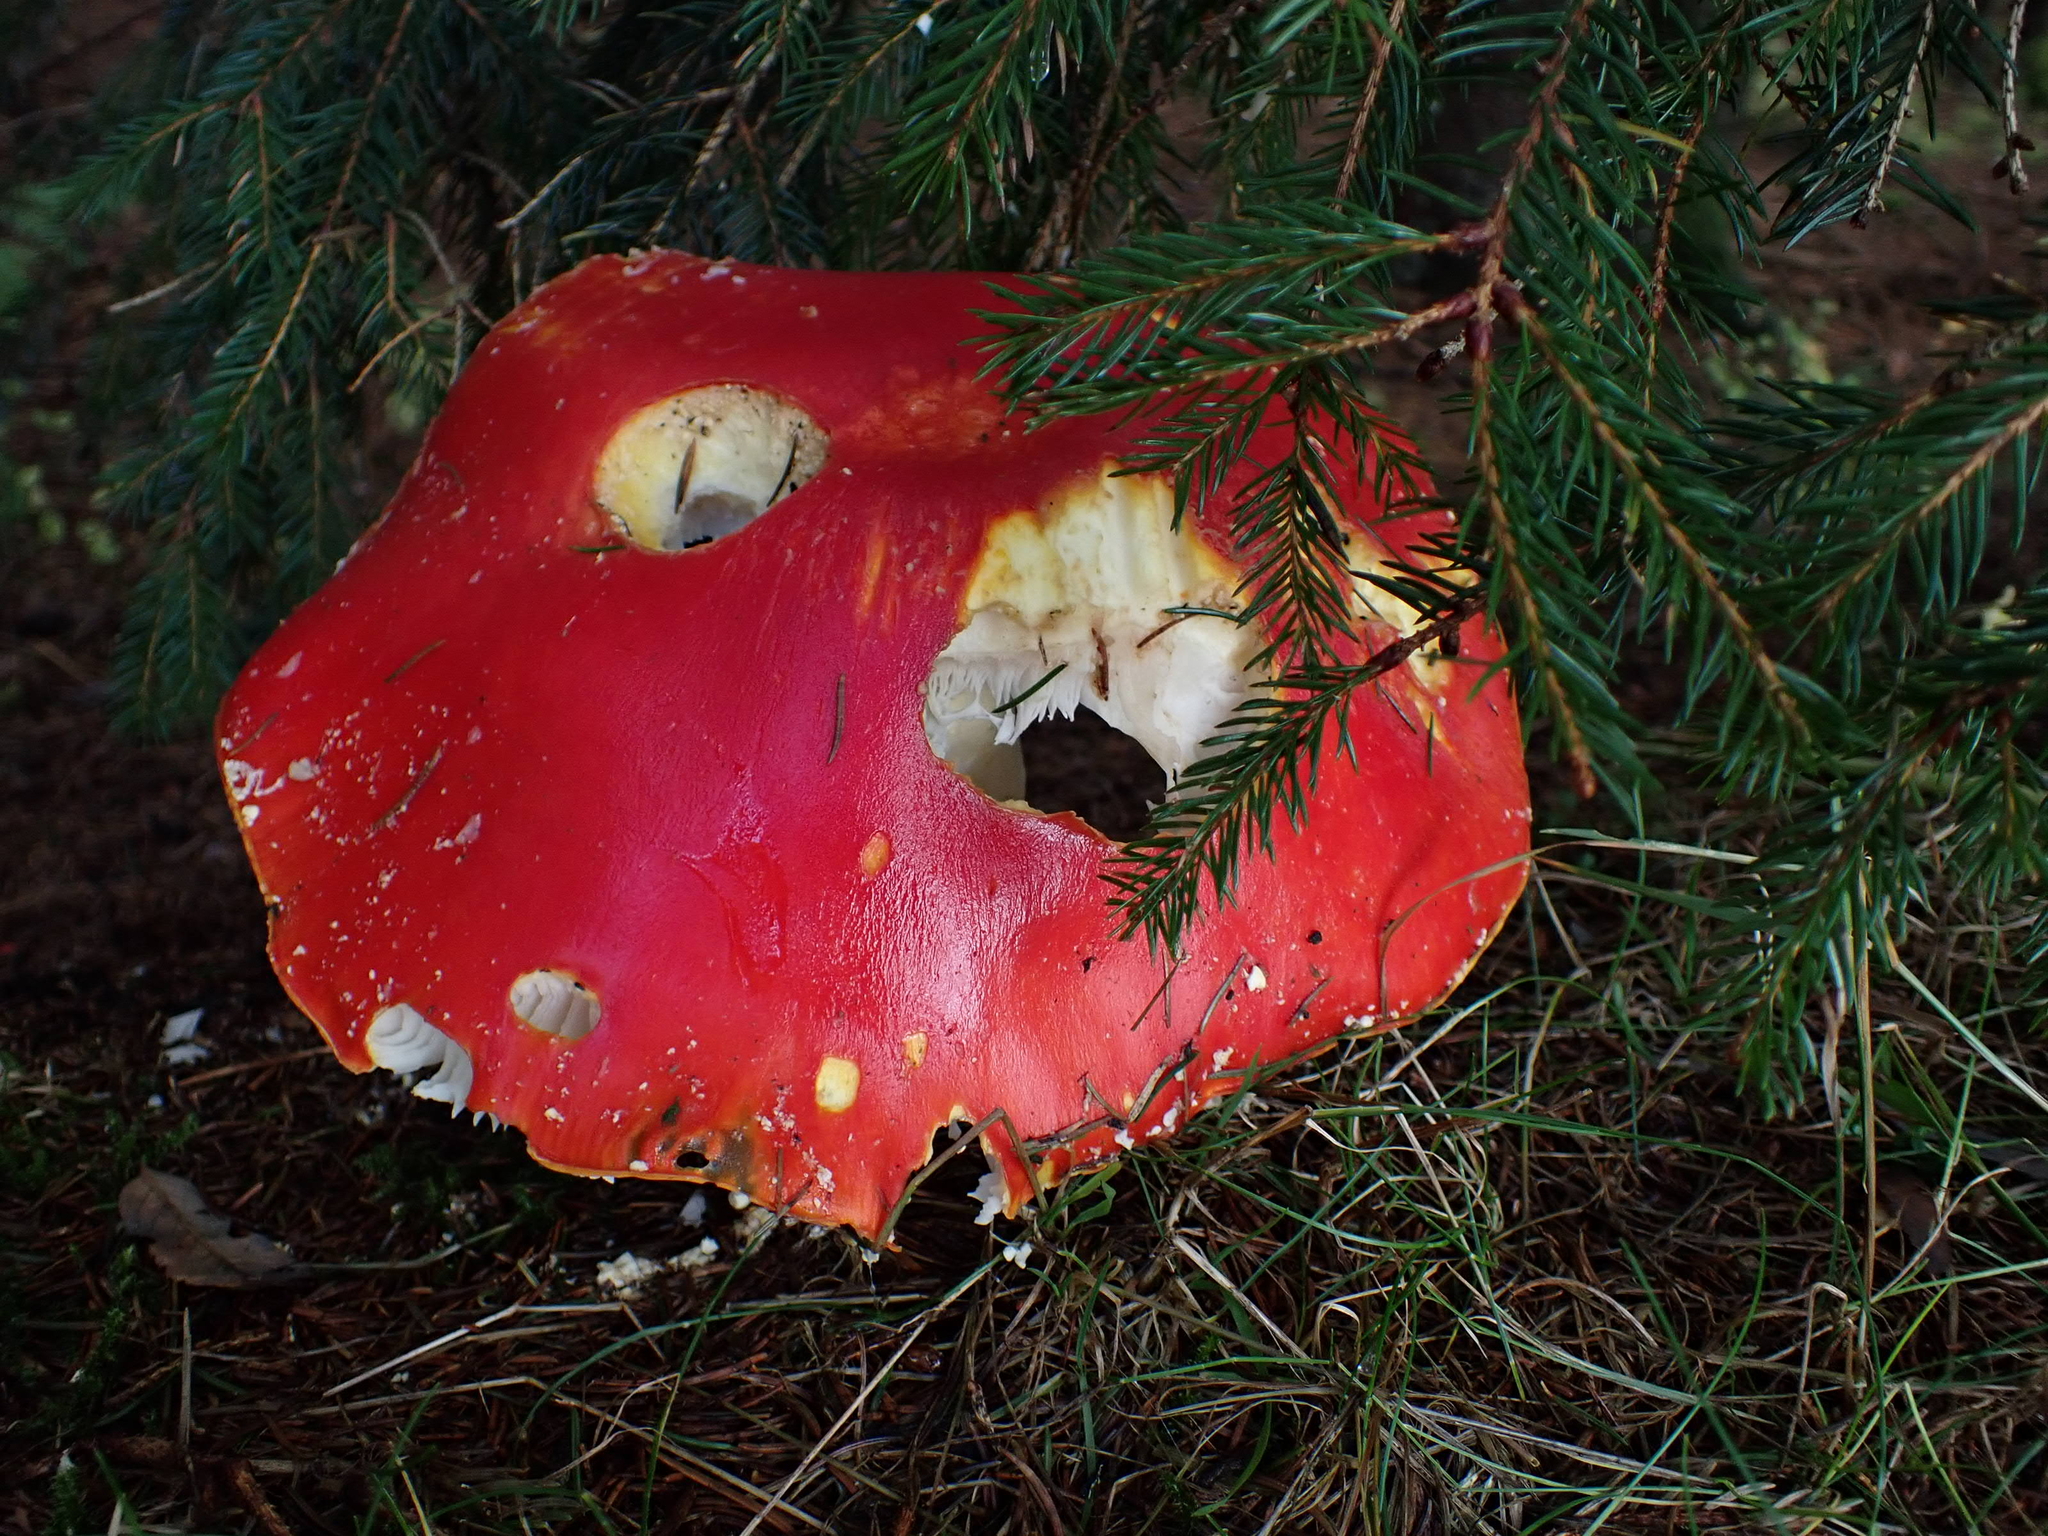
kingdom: Fungi
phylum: Basidiomycota
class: Agaricomycetes
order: Agaricales
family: Amanitaceae
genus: Amanita
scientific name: Amanita muscaria
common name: Fly agaric
